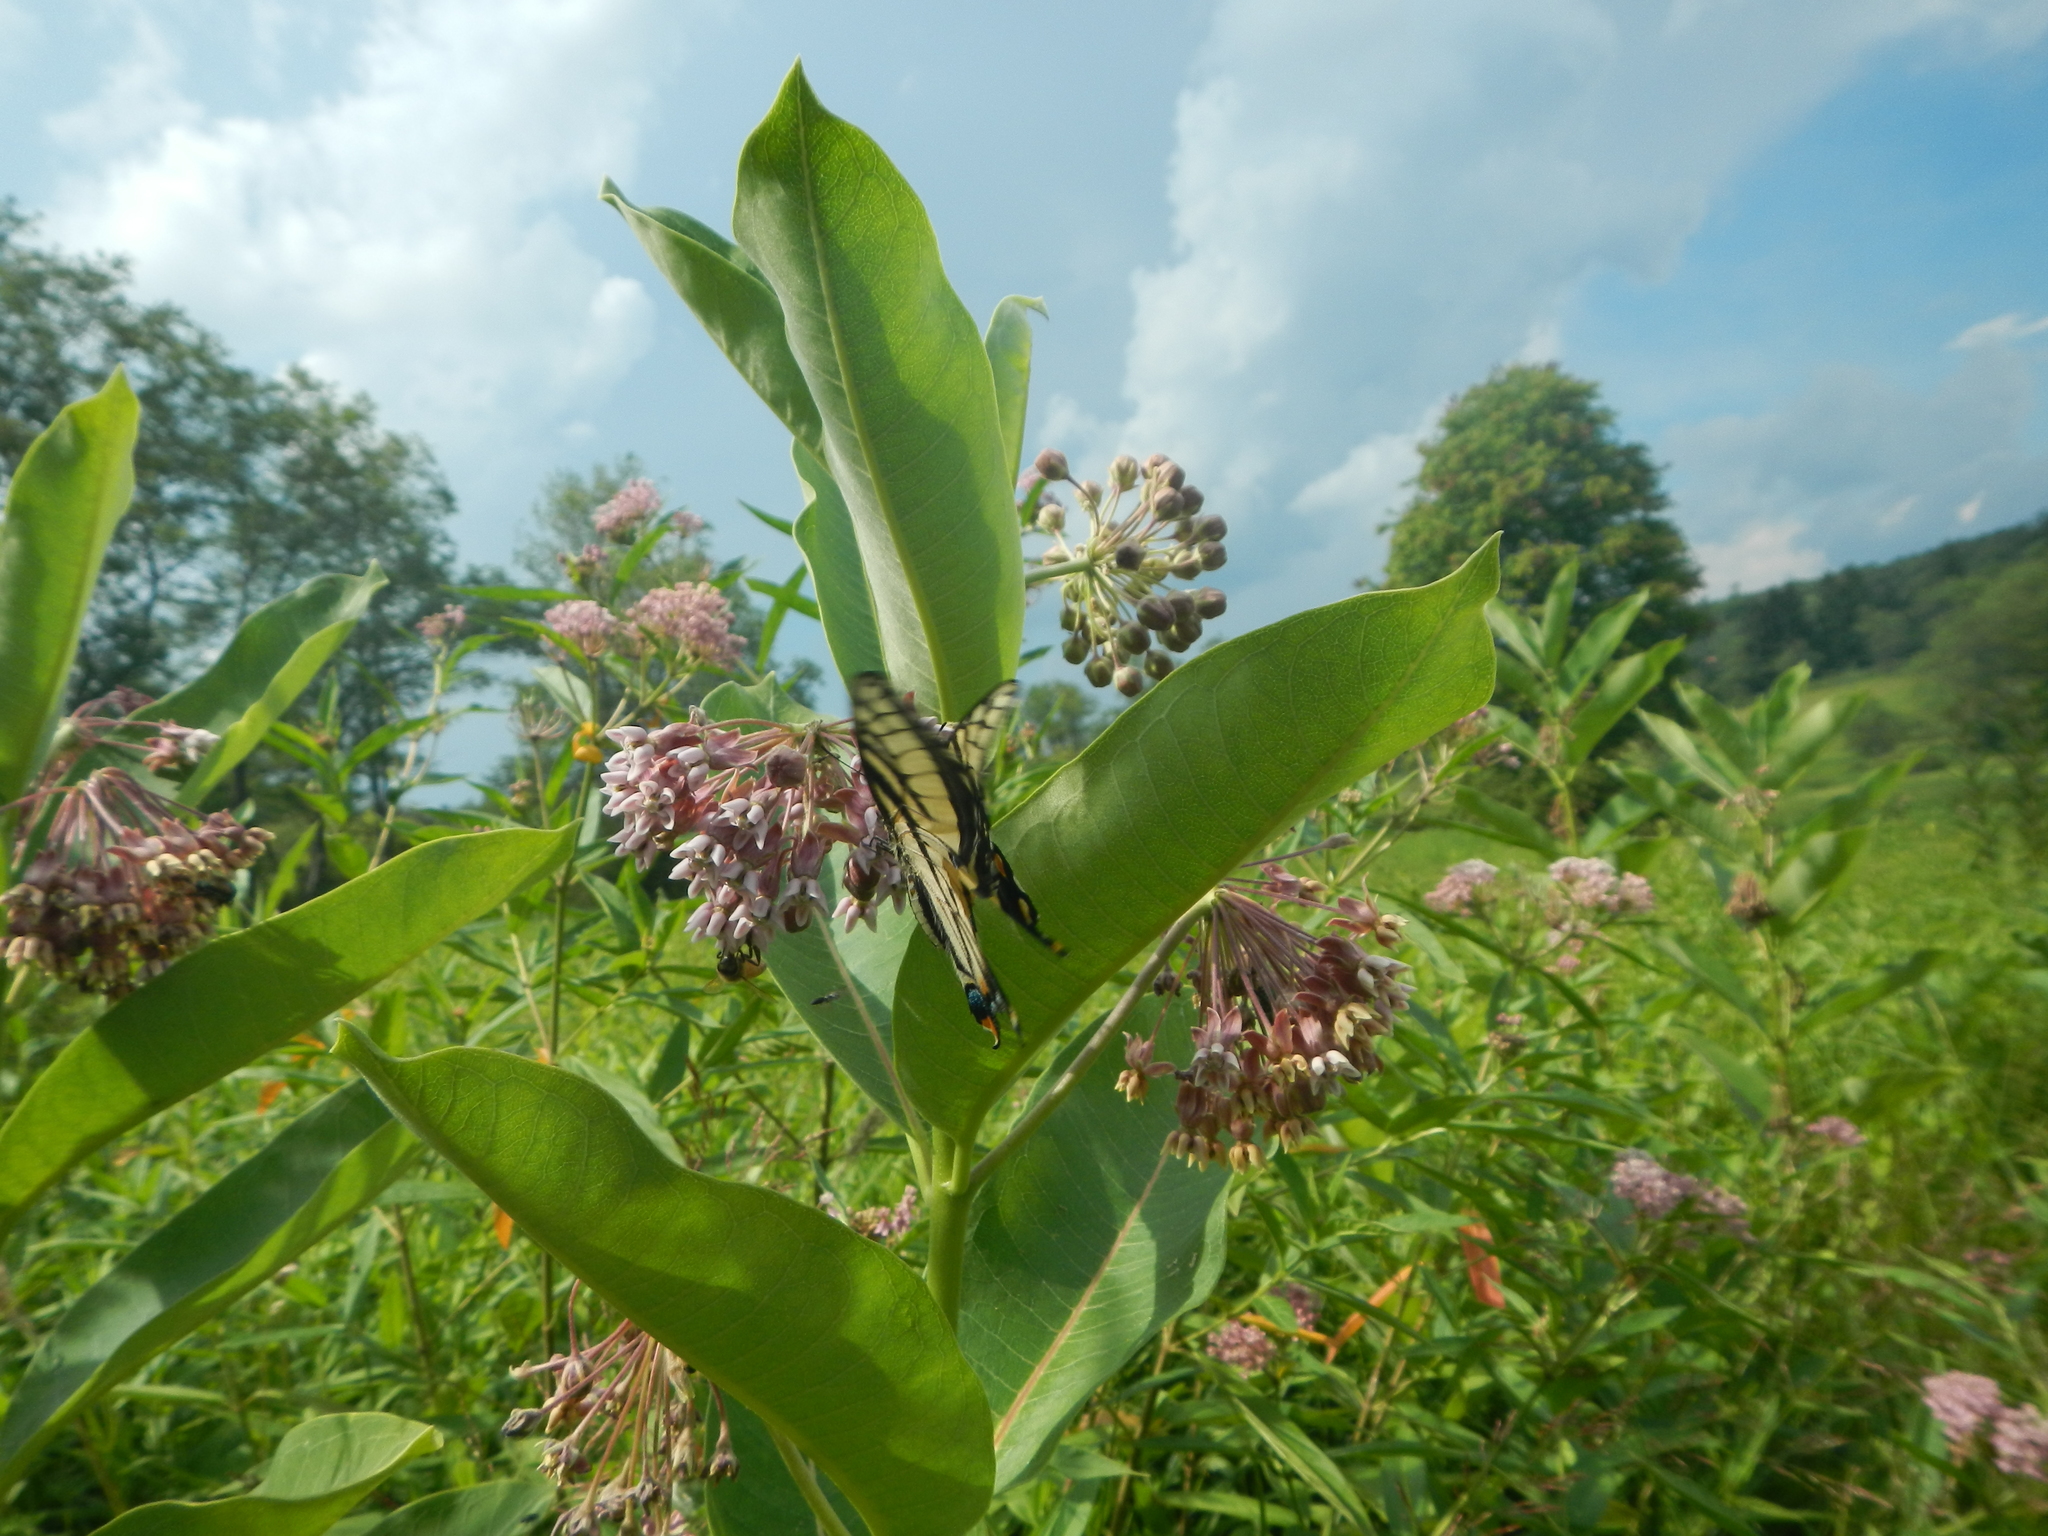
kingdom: Animalia
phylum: Arthropoda
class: Insecta
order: Lepidoptera
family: Papilionidae
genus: Papilio
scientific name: Papilio glaucus
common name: Tiger swallowtail
